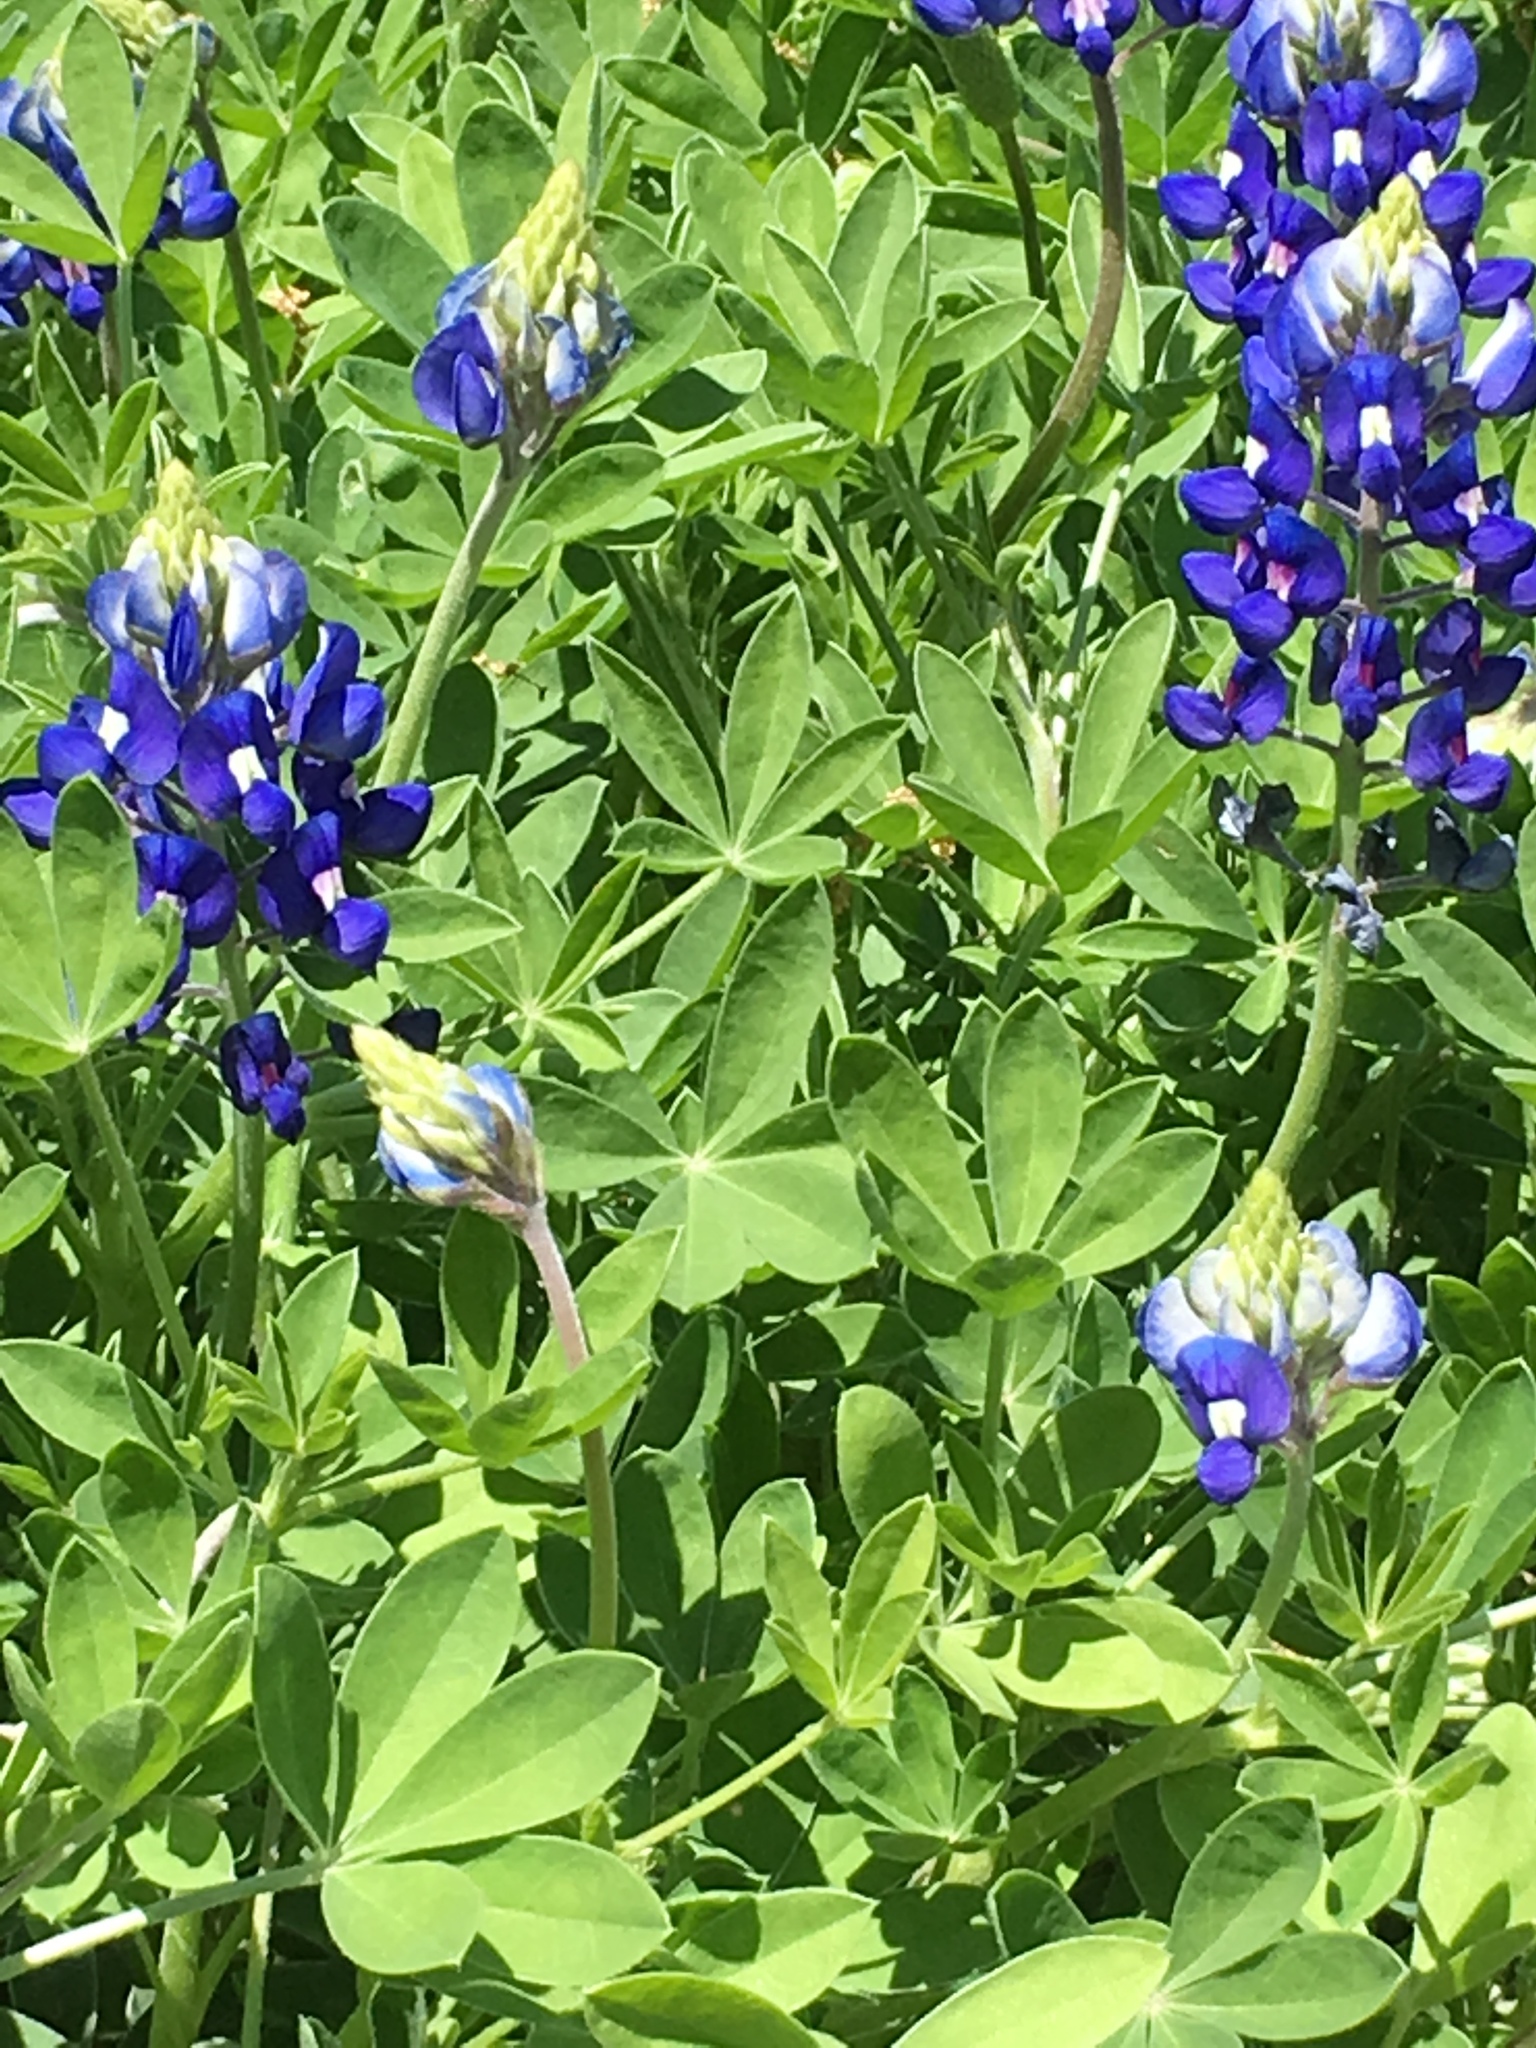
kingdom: Plantae
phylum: Tracheophyta
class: Magnoliopsida
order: Fabales
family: Fabaceae
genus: Lupinus
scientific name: Lupinus texensis
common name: Texas bluebonnet
